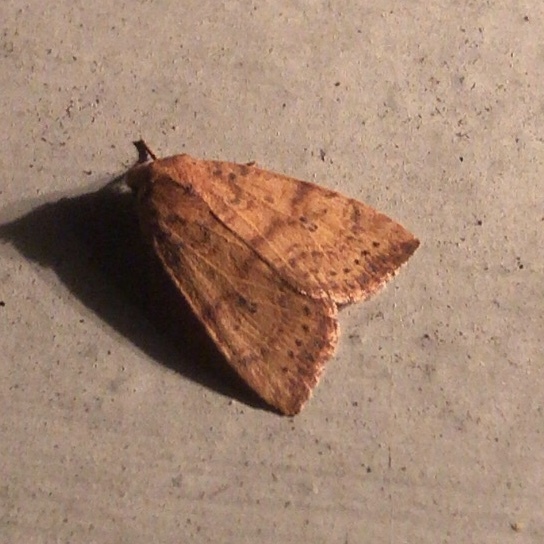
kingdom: Animalia
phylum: Arthropoda
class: Insecta
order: Lepidoptera
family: Noctuidae
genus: Anathix
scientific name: Anathix ralla
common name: Dotted sallow
